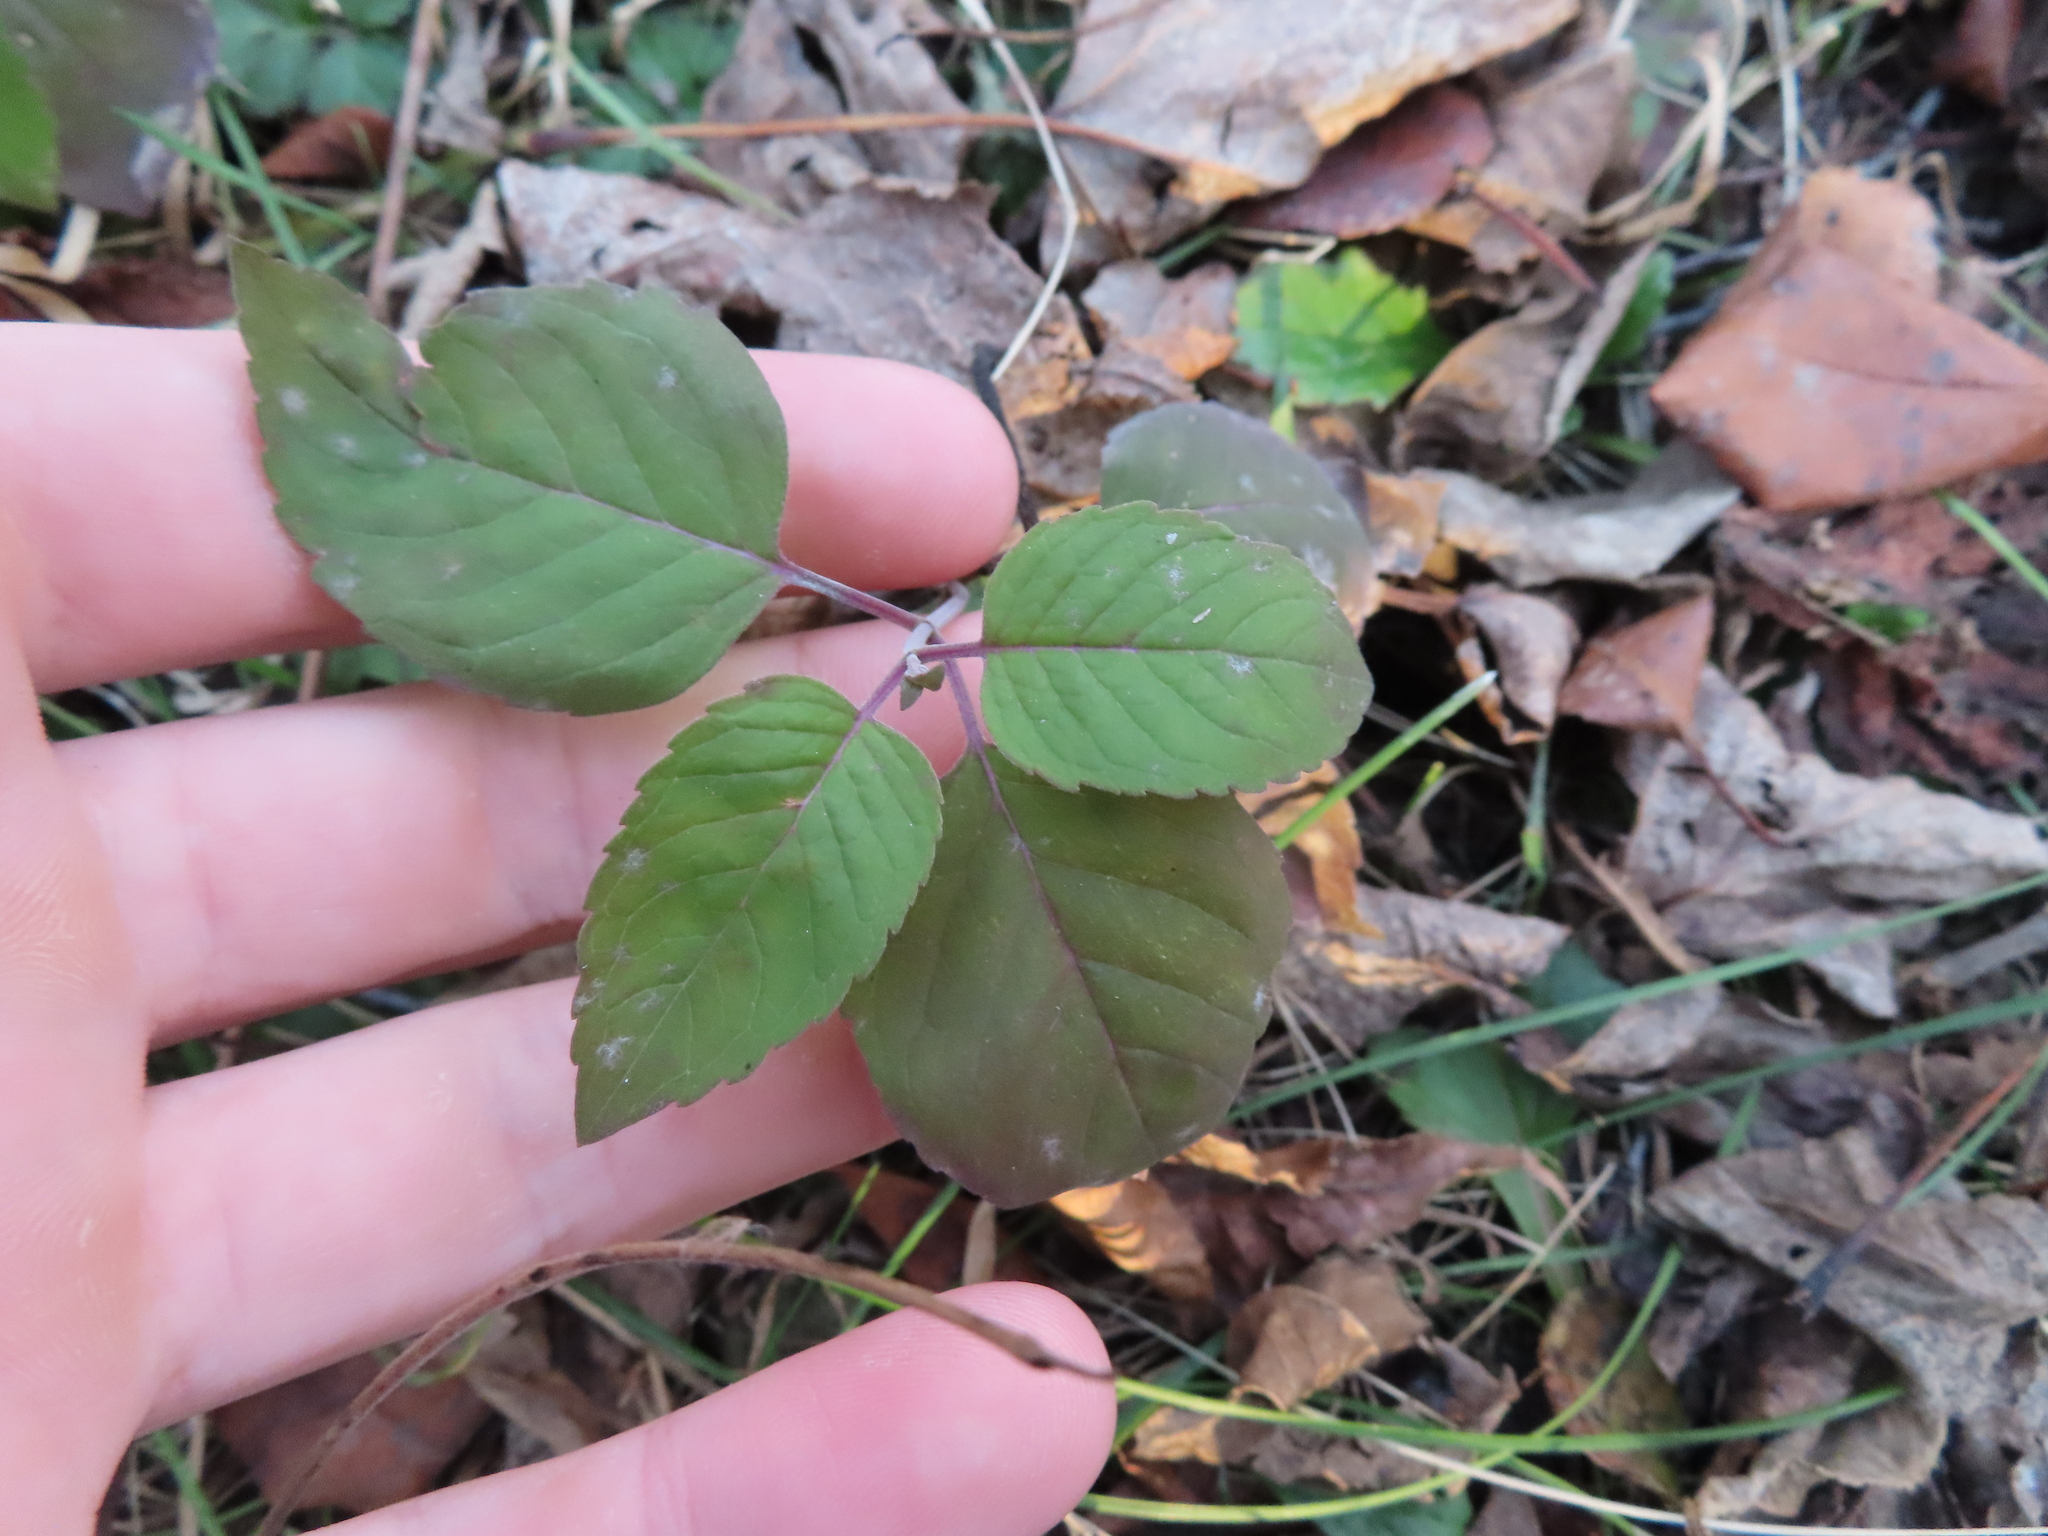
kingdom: Plantae
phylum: Tracheophyta
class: Magnoliopsida
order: Lamiales
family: Lamiaceae
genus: Monarda
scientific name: Monarda fistulosa
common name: Purple beebalm
